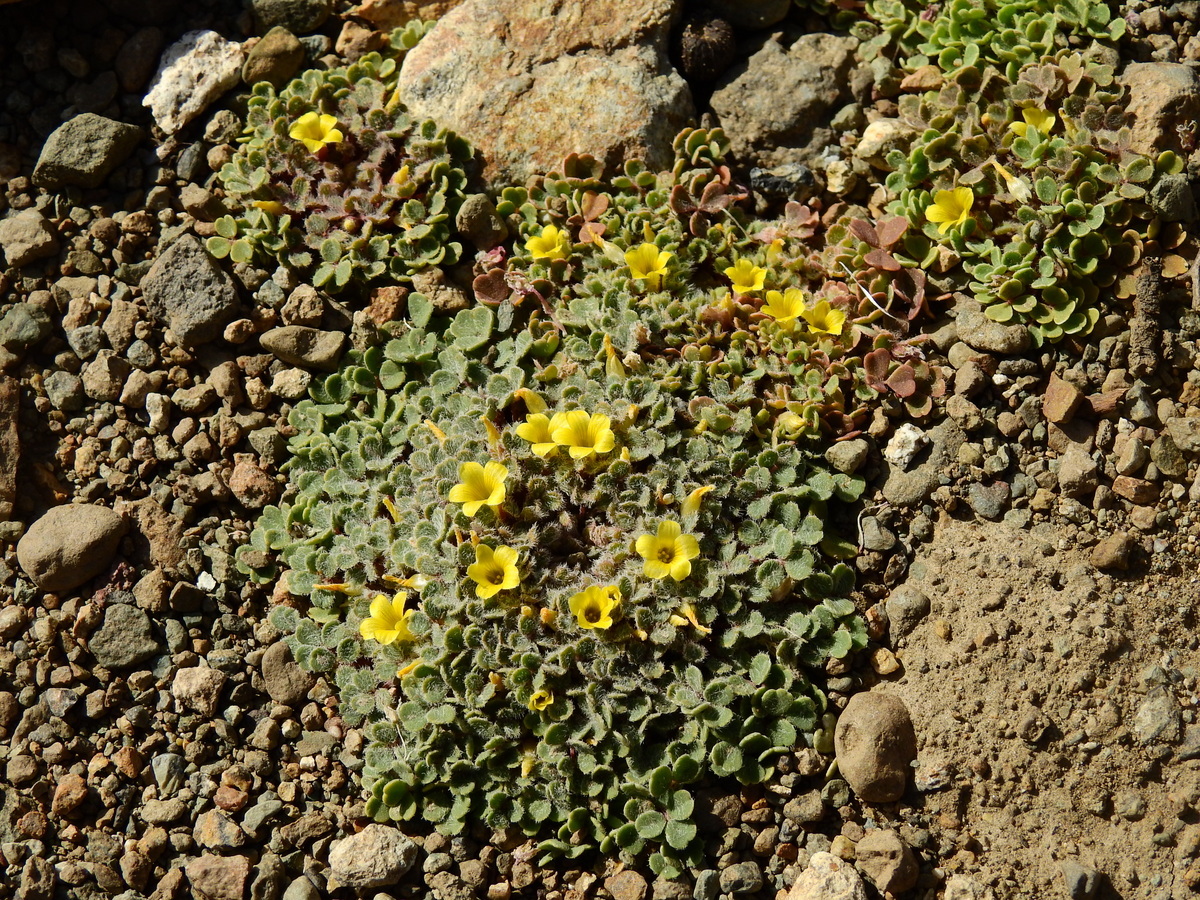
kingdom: Plantae
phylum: Tracheophyta
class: Magnoliopsida
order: Oxalidales
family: Oxalidaceae
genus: Oxalis
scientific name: Oxalis compacta
